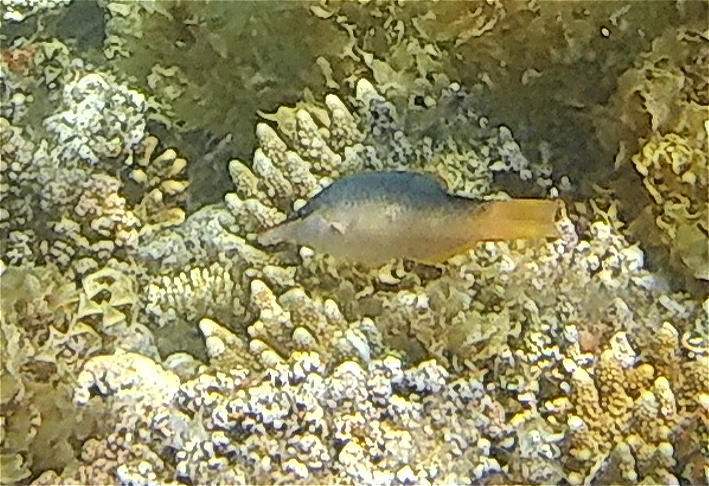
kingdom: Animalia
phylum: Chordata
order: Perciformes
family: Labridae
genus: Gomphosus
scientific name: Gomphosus klunzingeri
